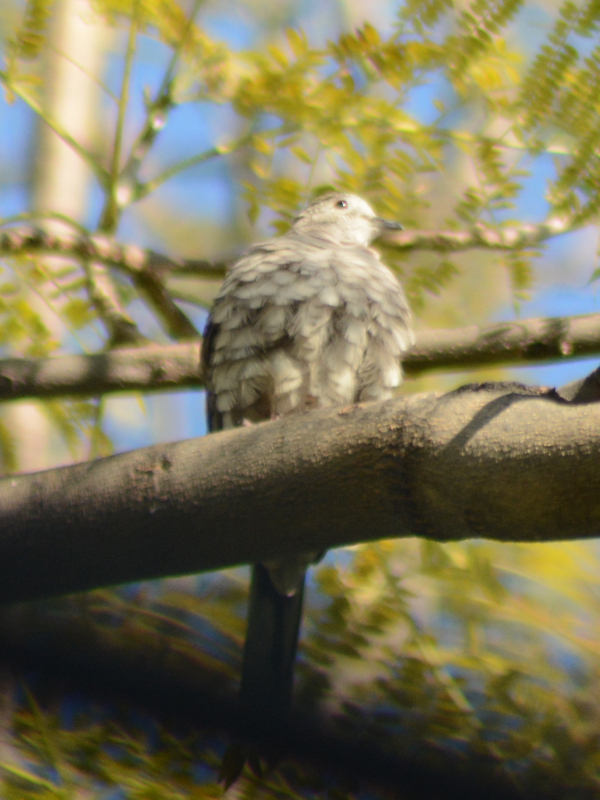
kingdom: Animalia
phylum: Chordata
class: Aves
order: Columbiformes
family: Columbidae
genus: Columbina
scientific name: Columbina inca
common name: Inca dove
